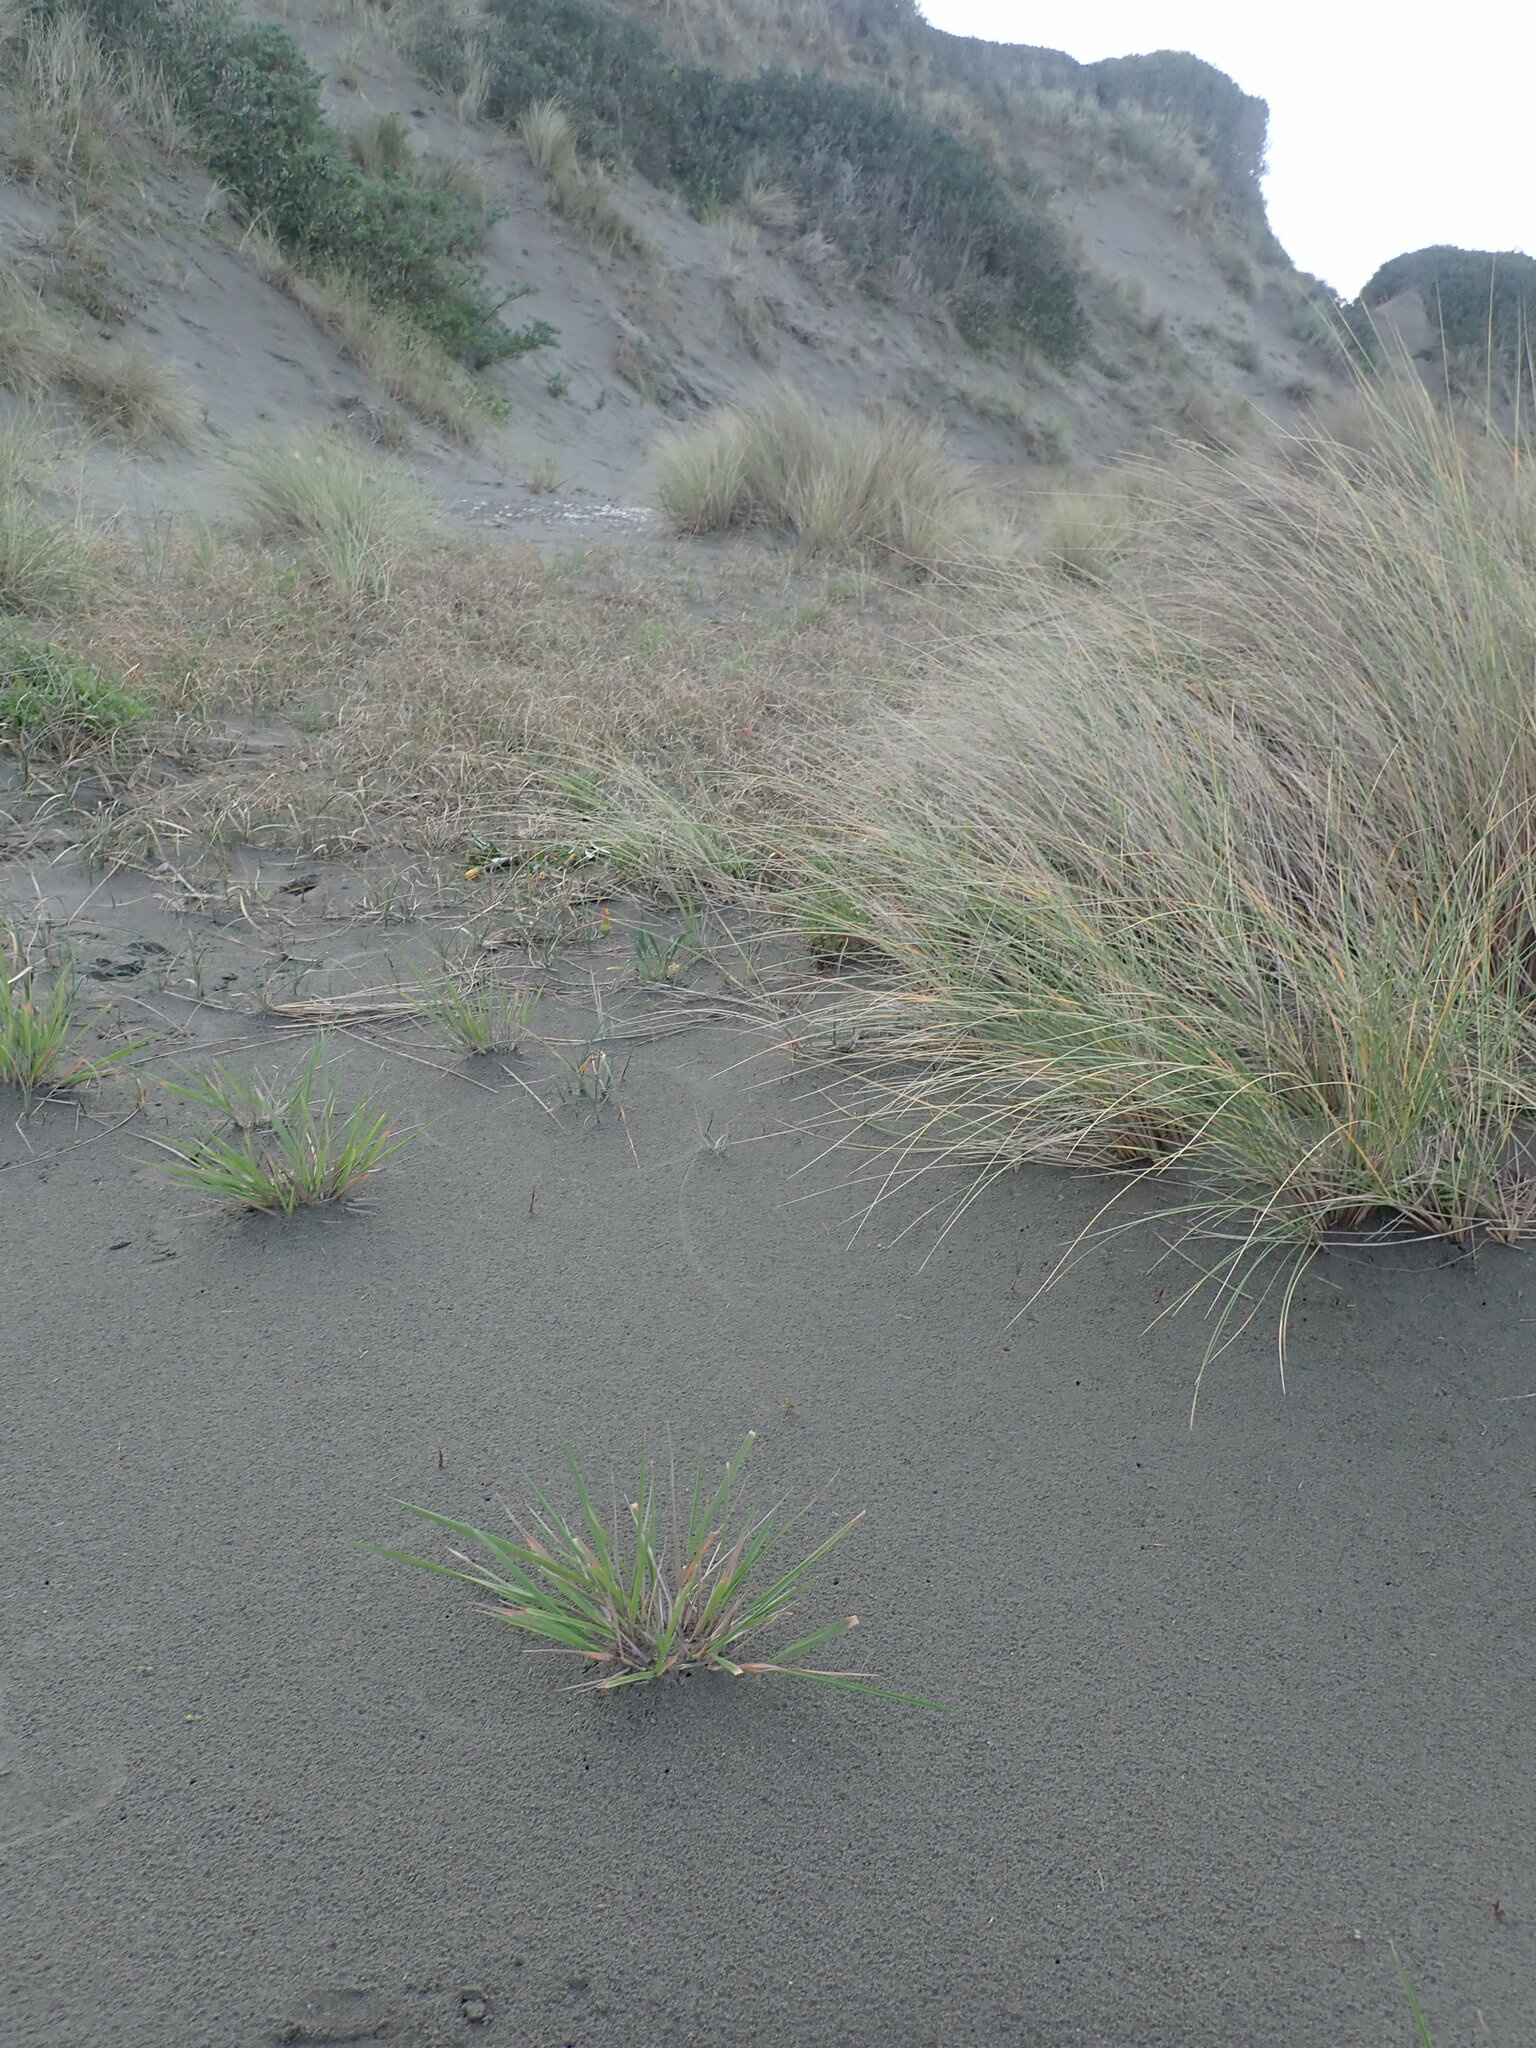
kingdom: Plantae
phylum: Tracheophyta
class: Liliopsida
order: Poales
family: Poaceae
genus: Lachnagrostis
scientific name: Lachnagrostis billardierei
